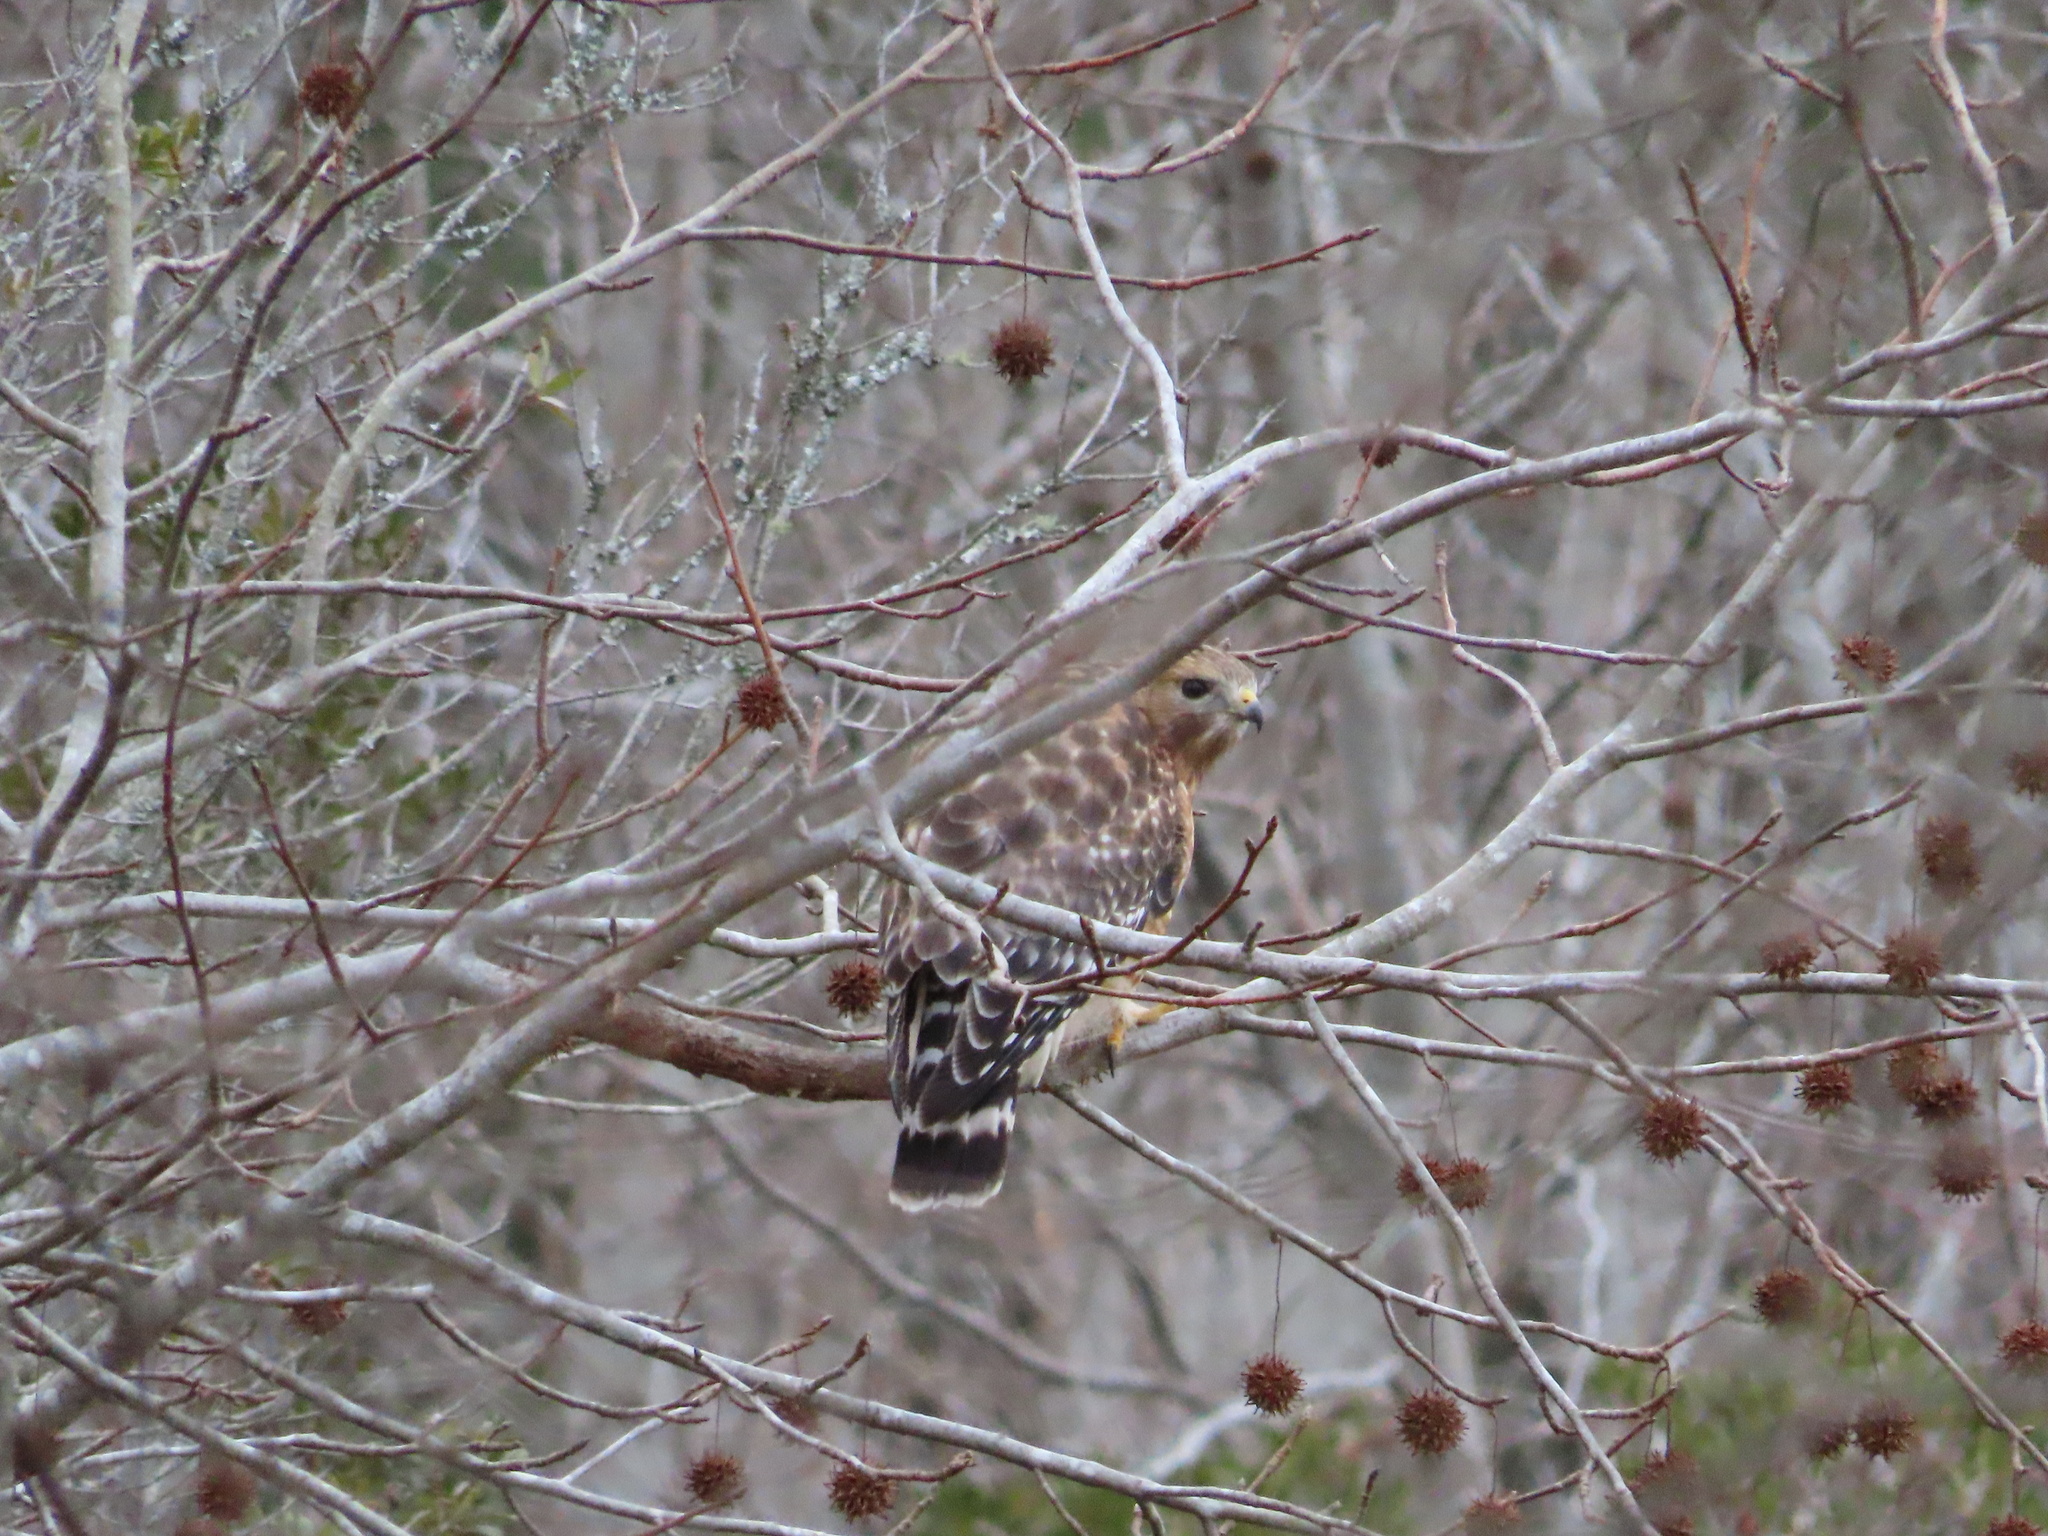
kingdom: Animalia
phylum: Chordata
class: Aves
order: Accipitriformes
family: Accipitridae
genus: Buteo
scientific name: Buteo lineatus
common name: Red-shouldered hawk
